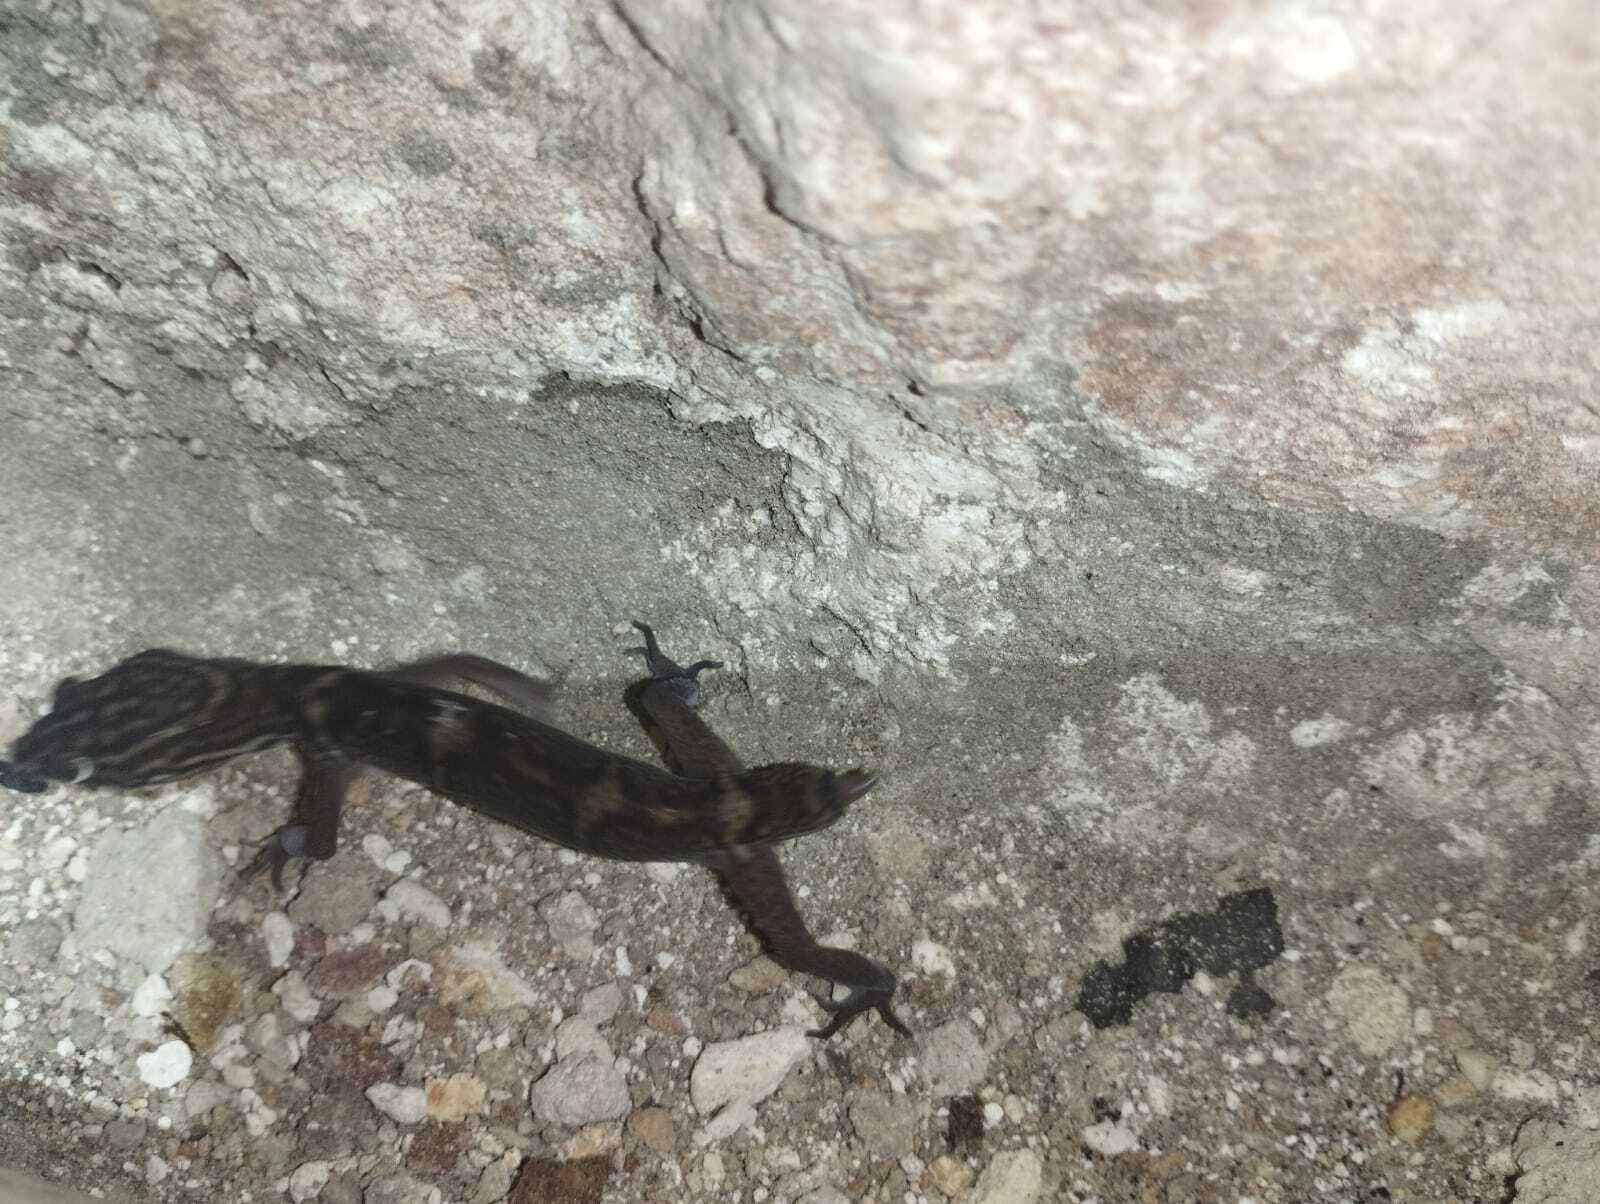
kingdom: Animalia
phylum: Chordata
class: Squamata
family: Eublepharidae
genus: Coleonyx
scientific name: Coleonyx elegans
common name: Yucatan banded gecko
